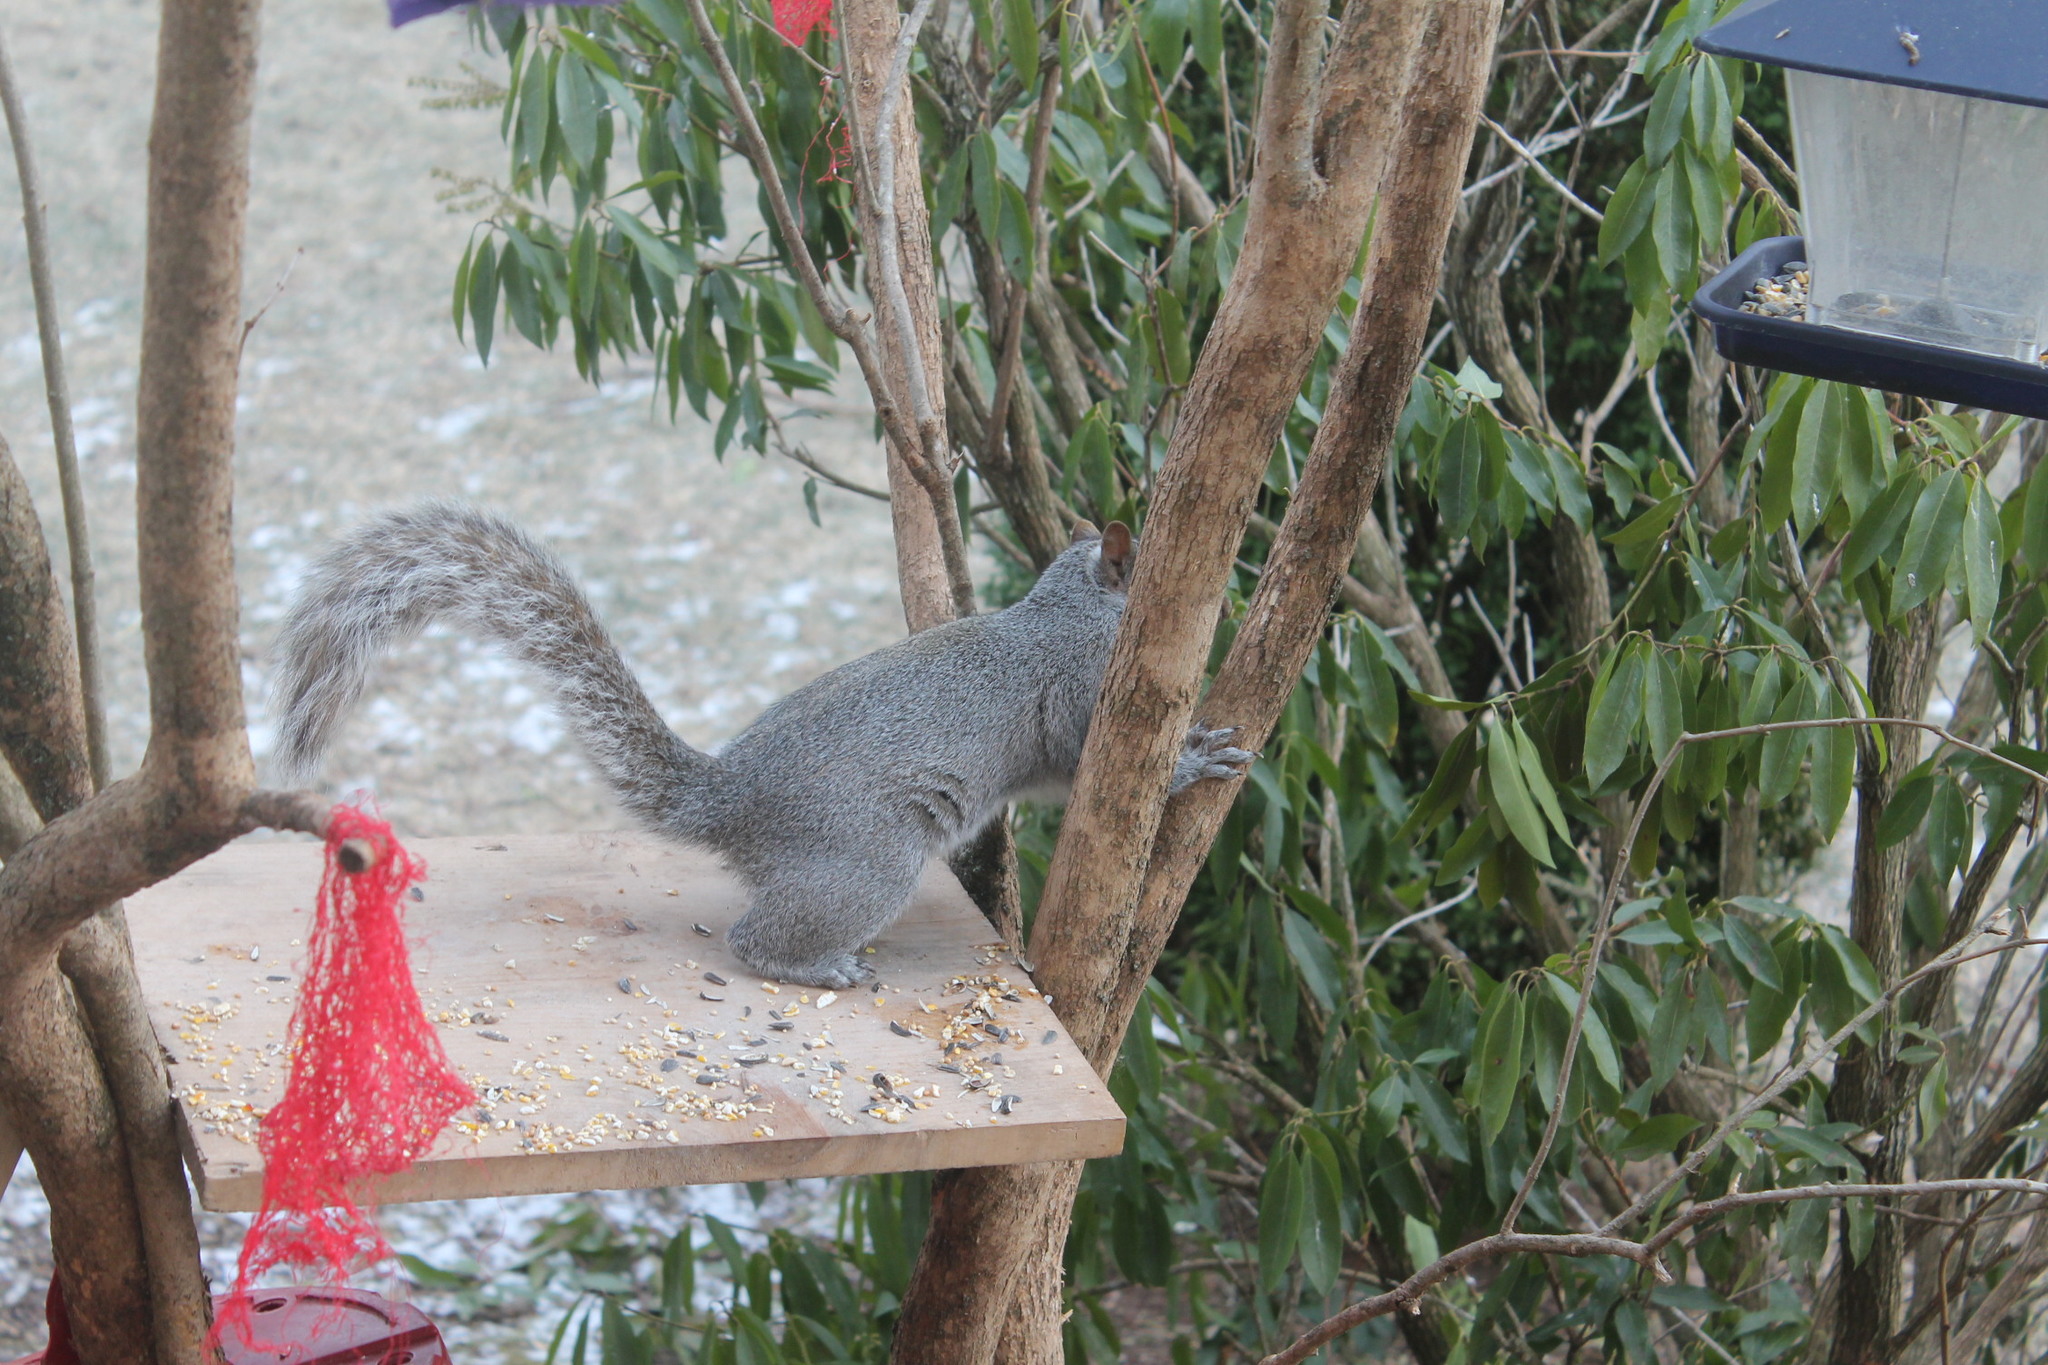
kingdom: Animalia
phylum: Chordata
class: Mammalia
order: Rodentia
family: Sciuridae
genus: Sciurus
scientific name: Sciurus carolinensis
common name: Eastern gray squirrel
